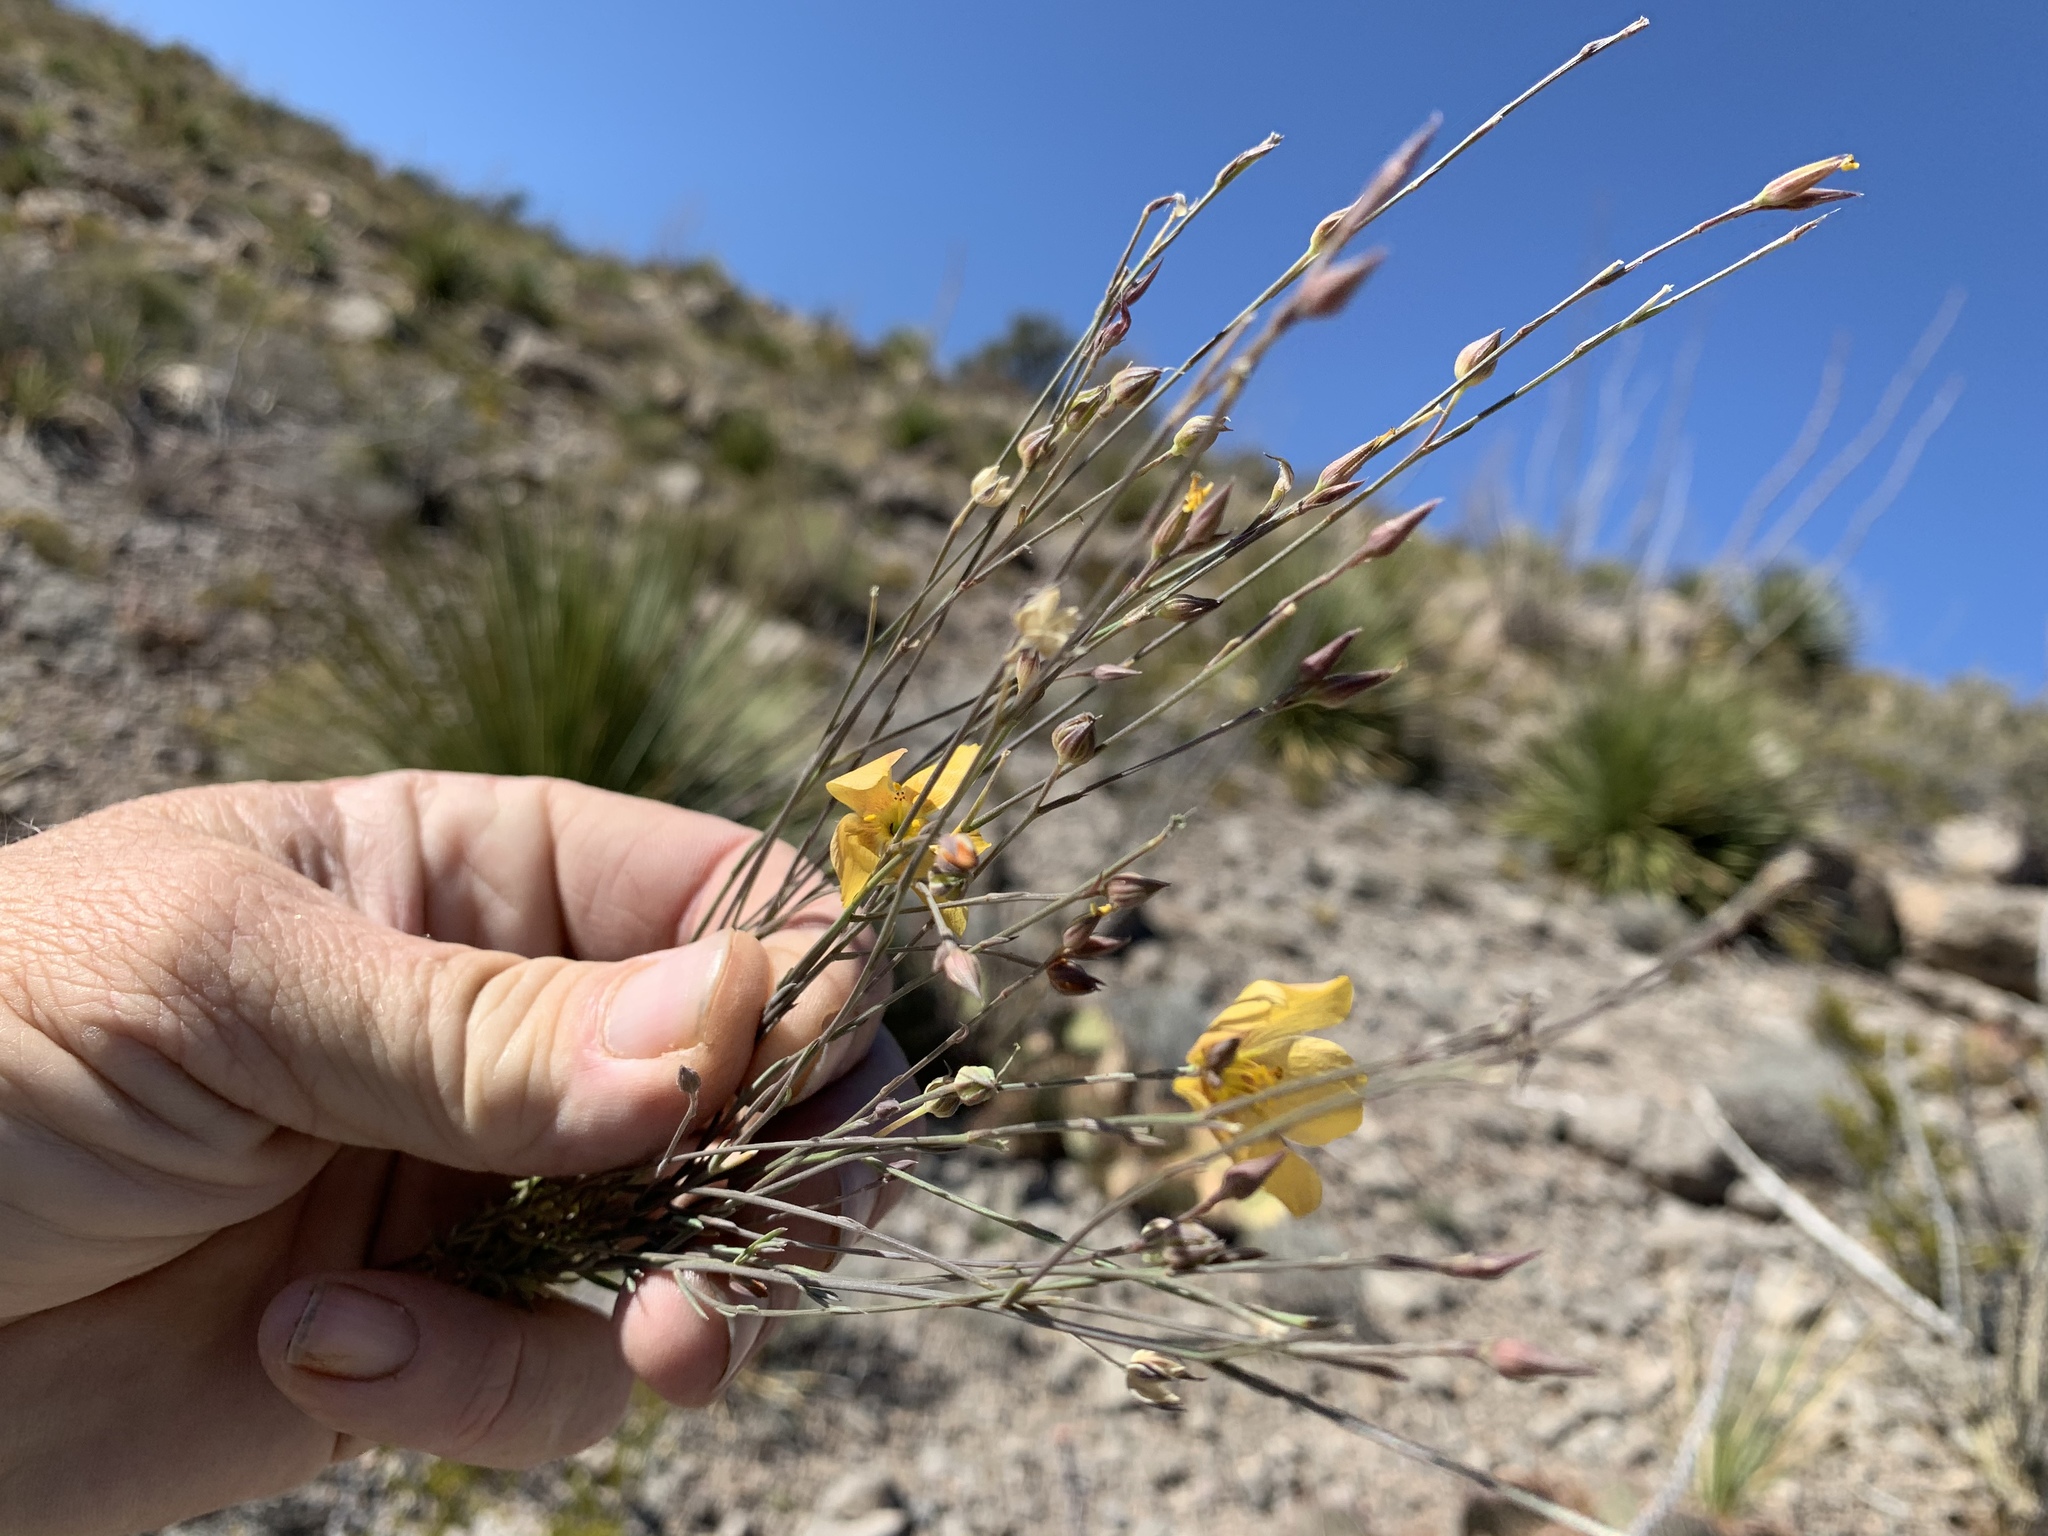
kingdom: Plantae
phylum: Tracheophyta
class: Magnoliopsida
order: Malpighiales
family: Linaceae
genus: Linum
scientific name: Linum berlandieri
